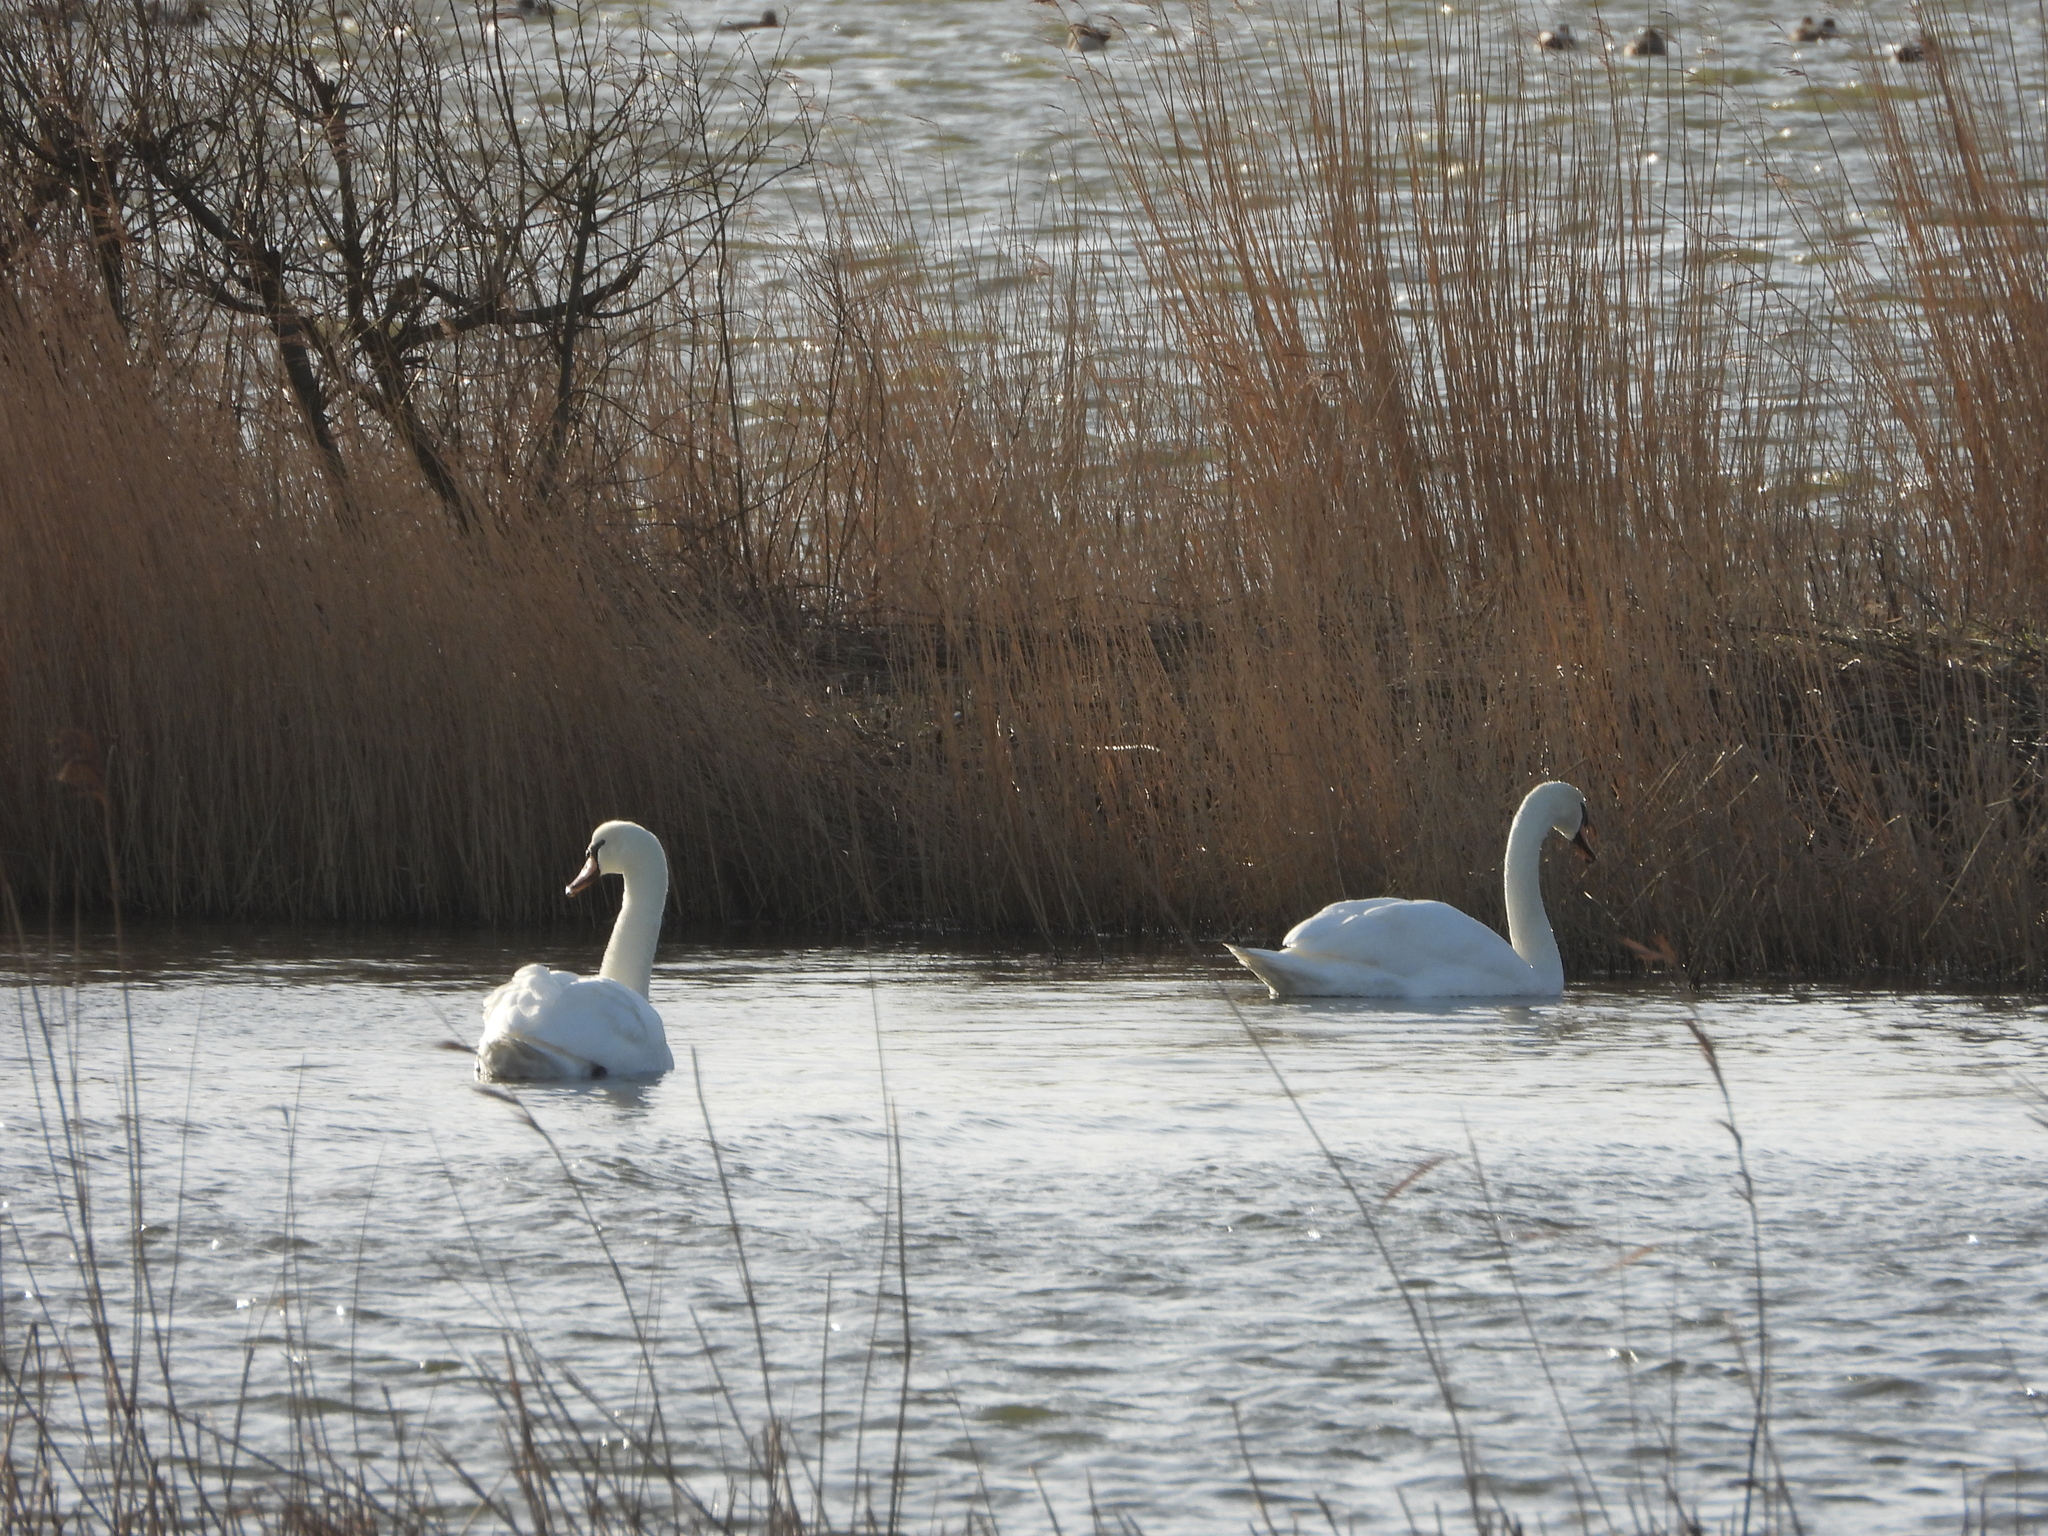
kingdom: Animalia
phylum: Chordata
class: Aves
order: Anseriformes
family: Anatidae
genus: Cygnus
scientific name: Cygnus olor
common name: Mute swan
